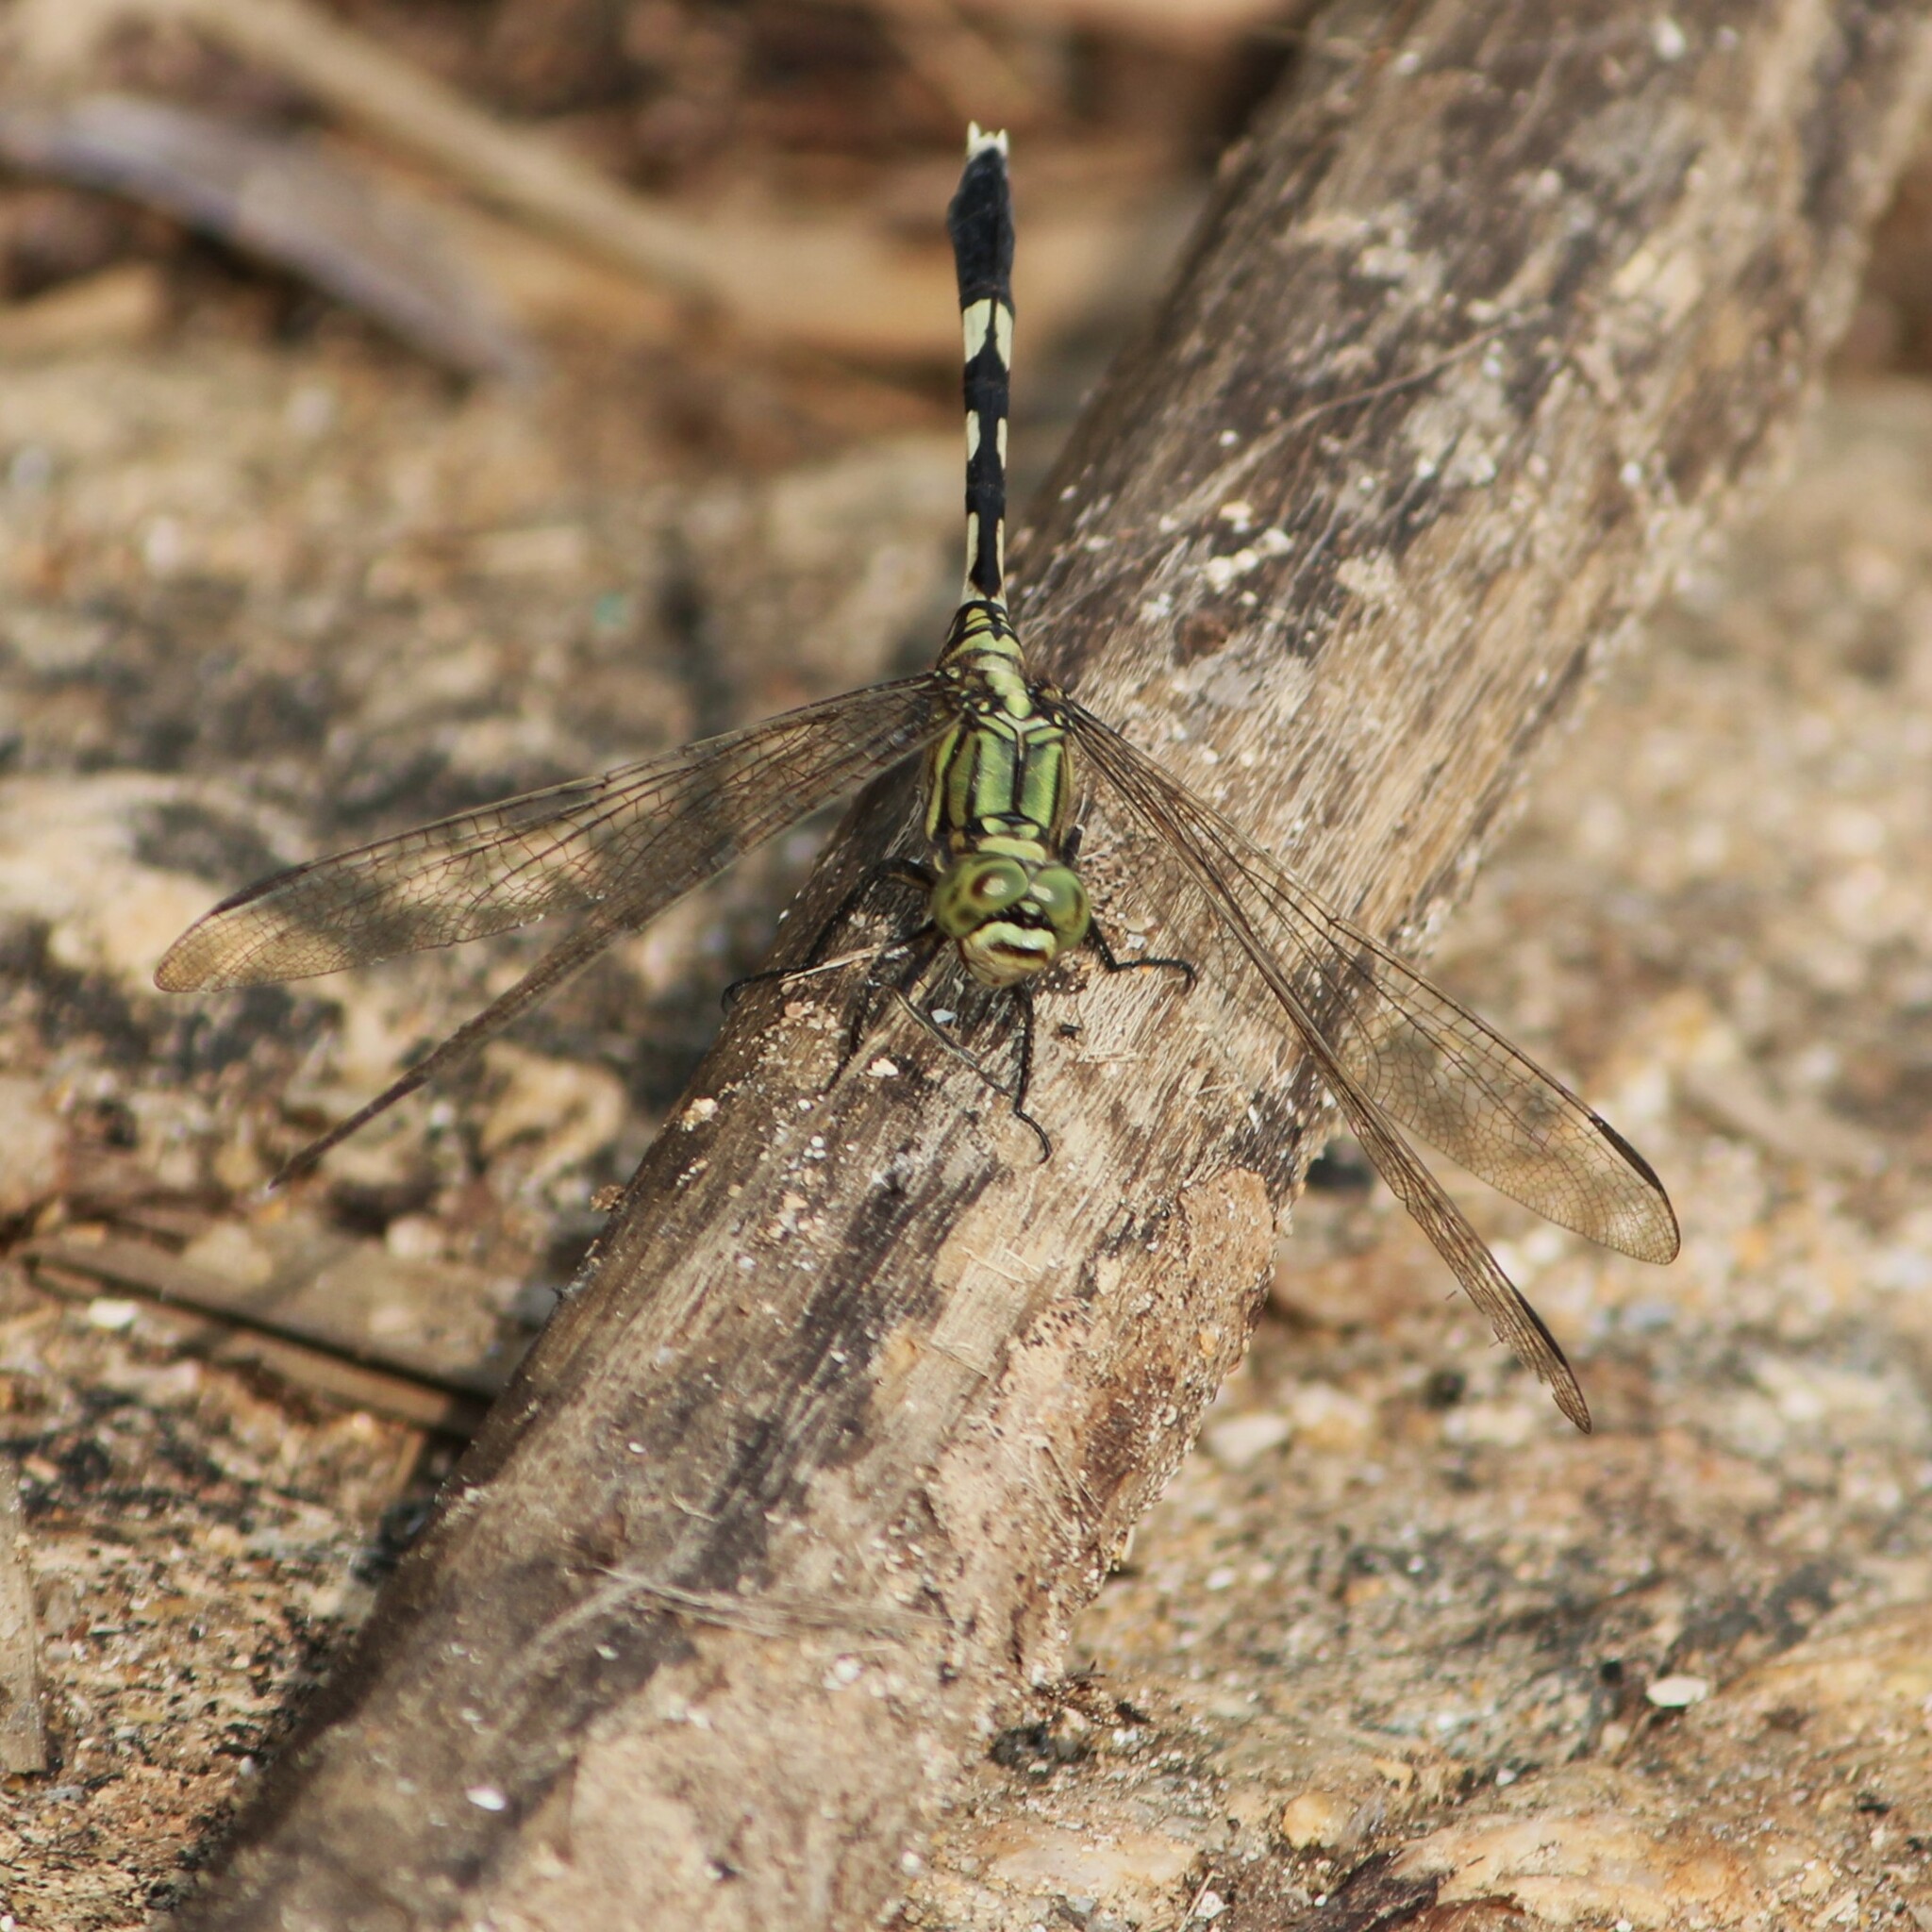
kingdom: Animalia
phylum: Arthropoda
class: Insecta
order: Odonata
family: Libellulidae
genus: Orthetrum
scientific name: Orthetrum sabina
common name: Slender skimmer
